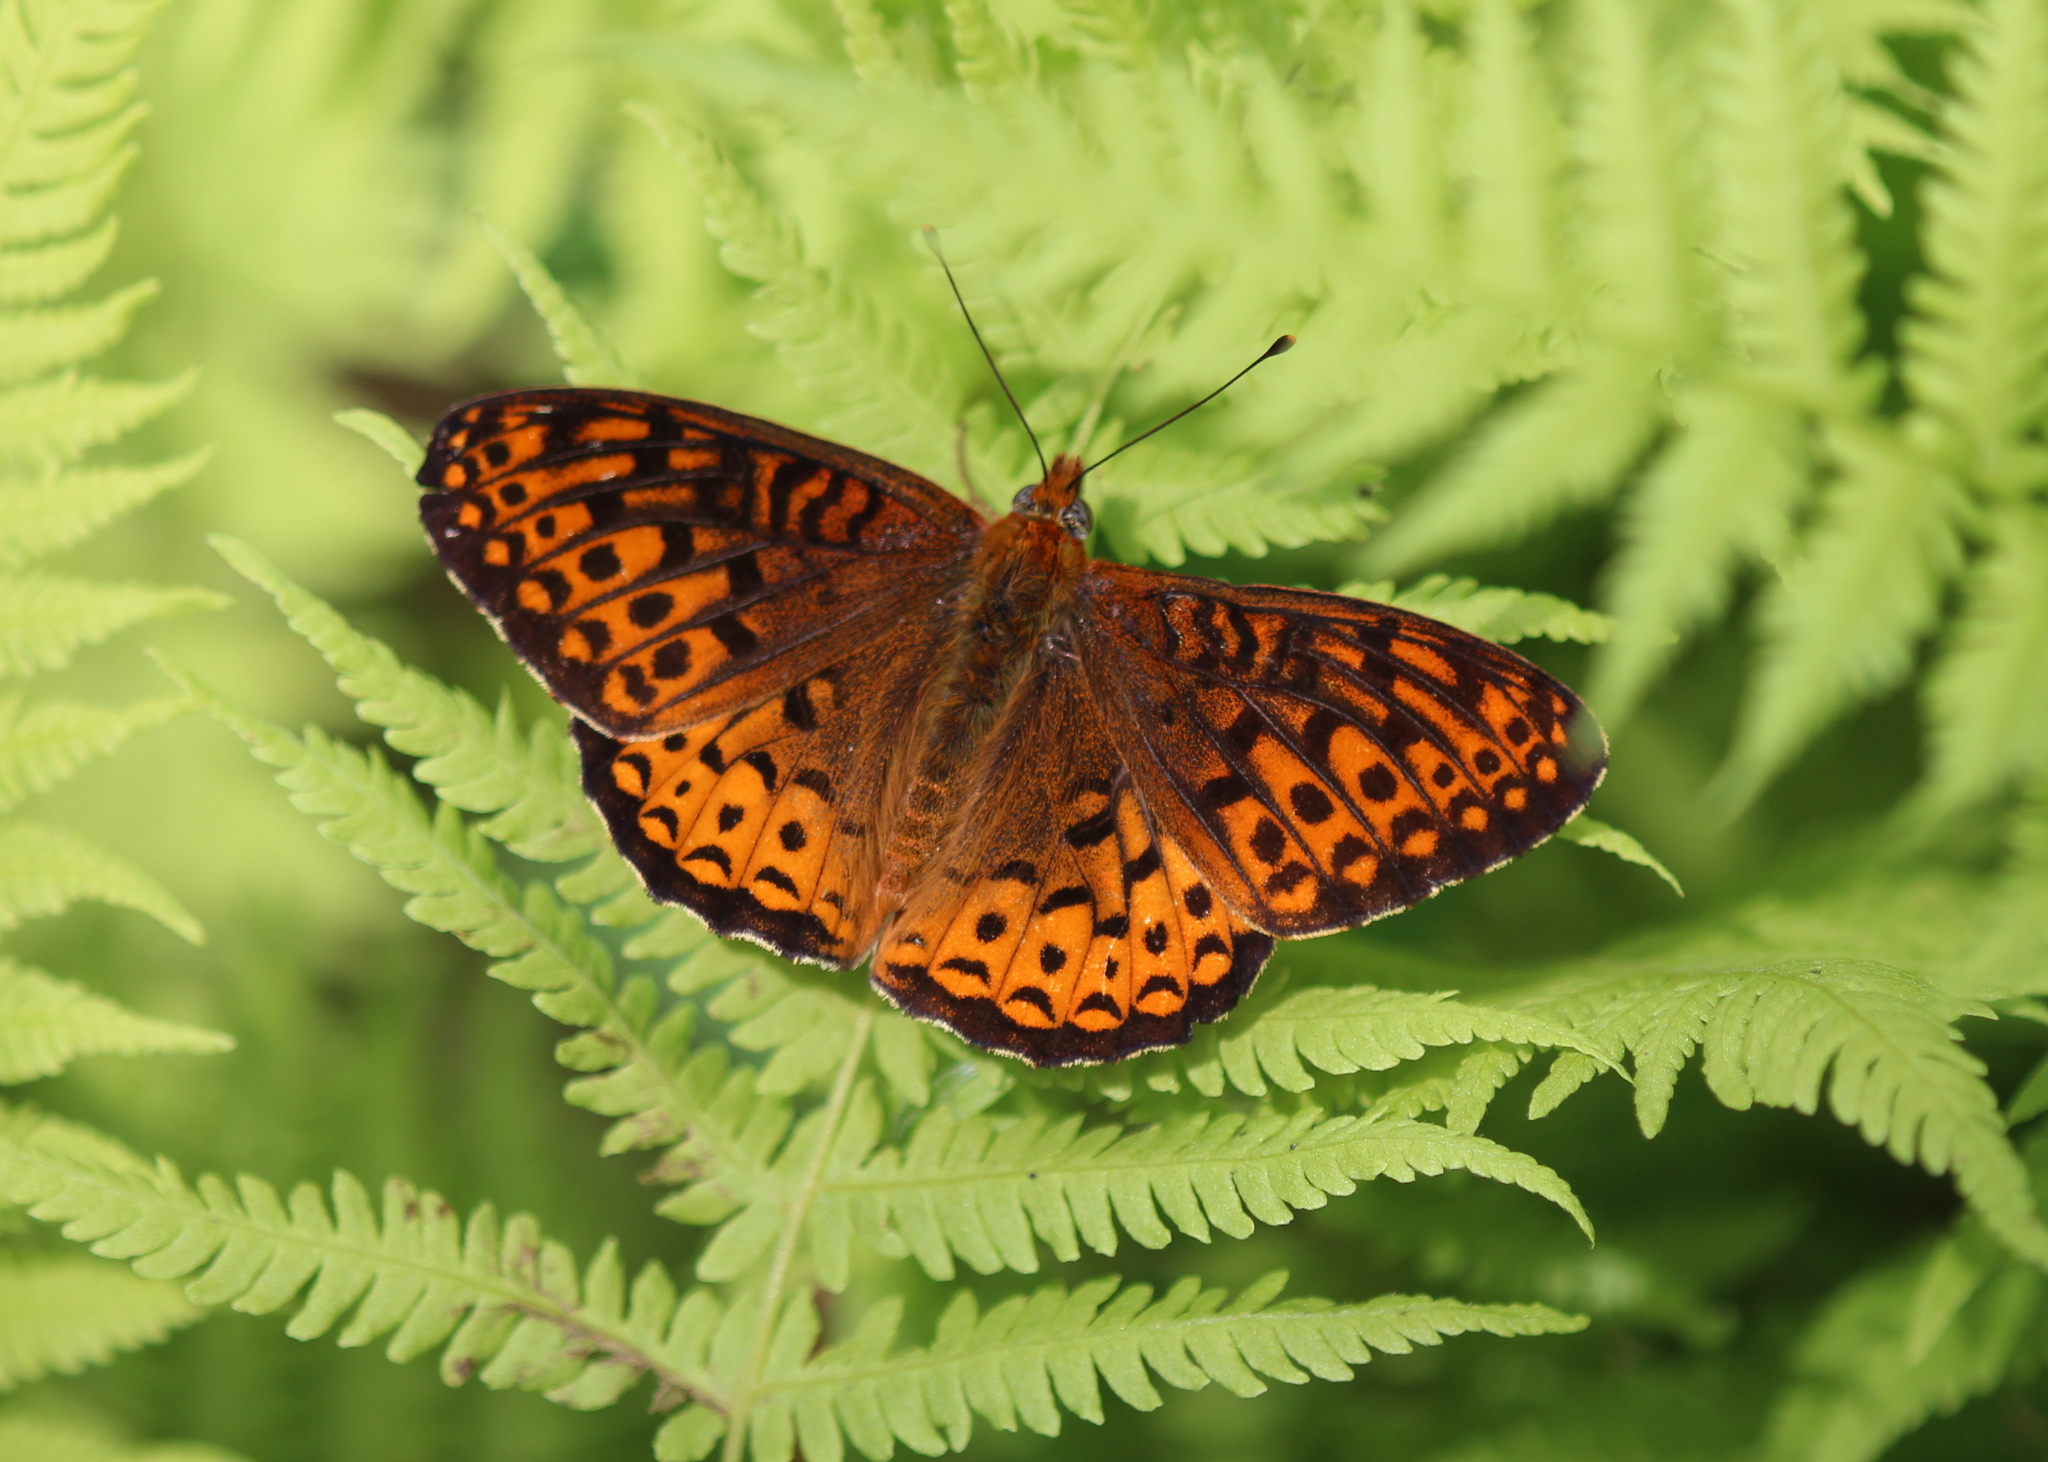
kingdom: Animalia
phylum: Arthropoda
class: Insecta
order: Lepidoptera
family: Nymphalidae
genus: Speyeria
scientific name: Speyeria atlantis
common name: Atlantis fritillary
